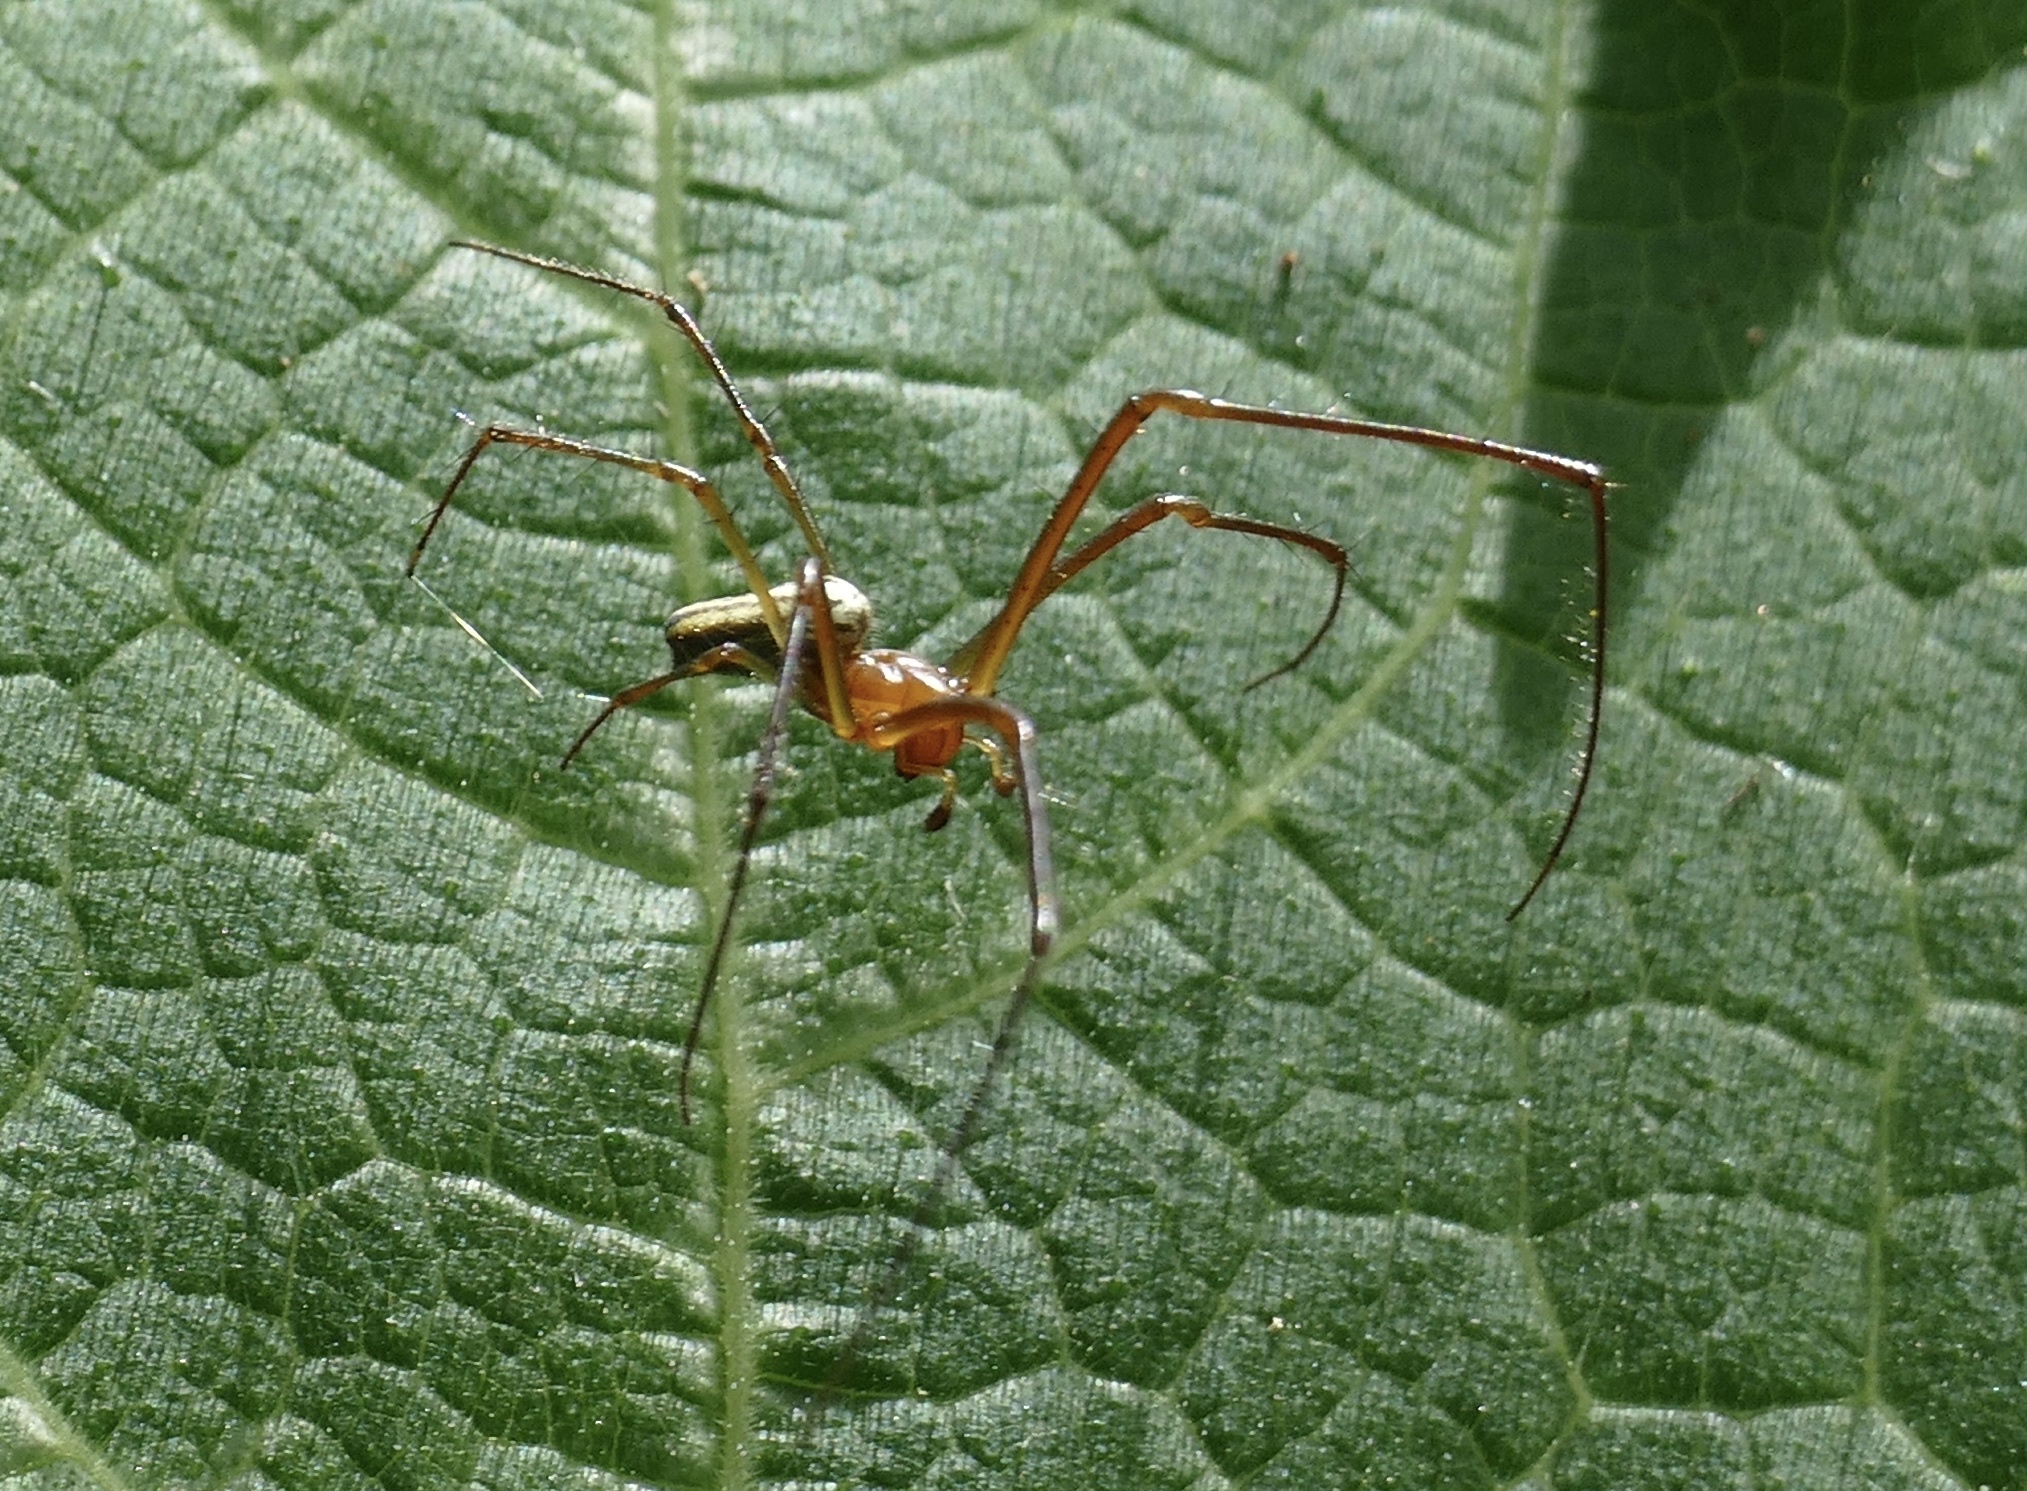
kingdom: Animalia
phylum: Arthropoda
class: Arachnida
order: Araneae
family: Tetragnathidae
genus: Leucauge
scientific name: Leucauge celebesiana
